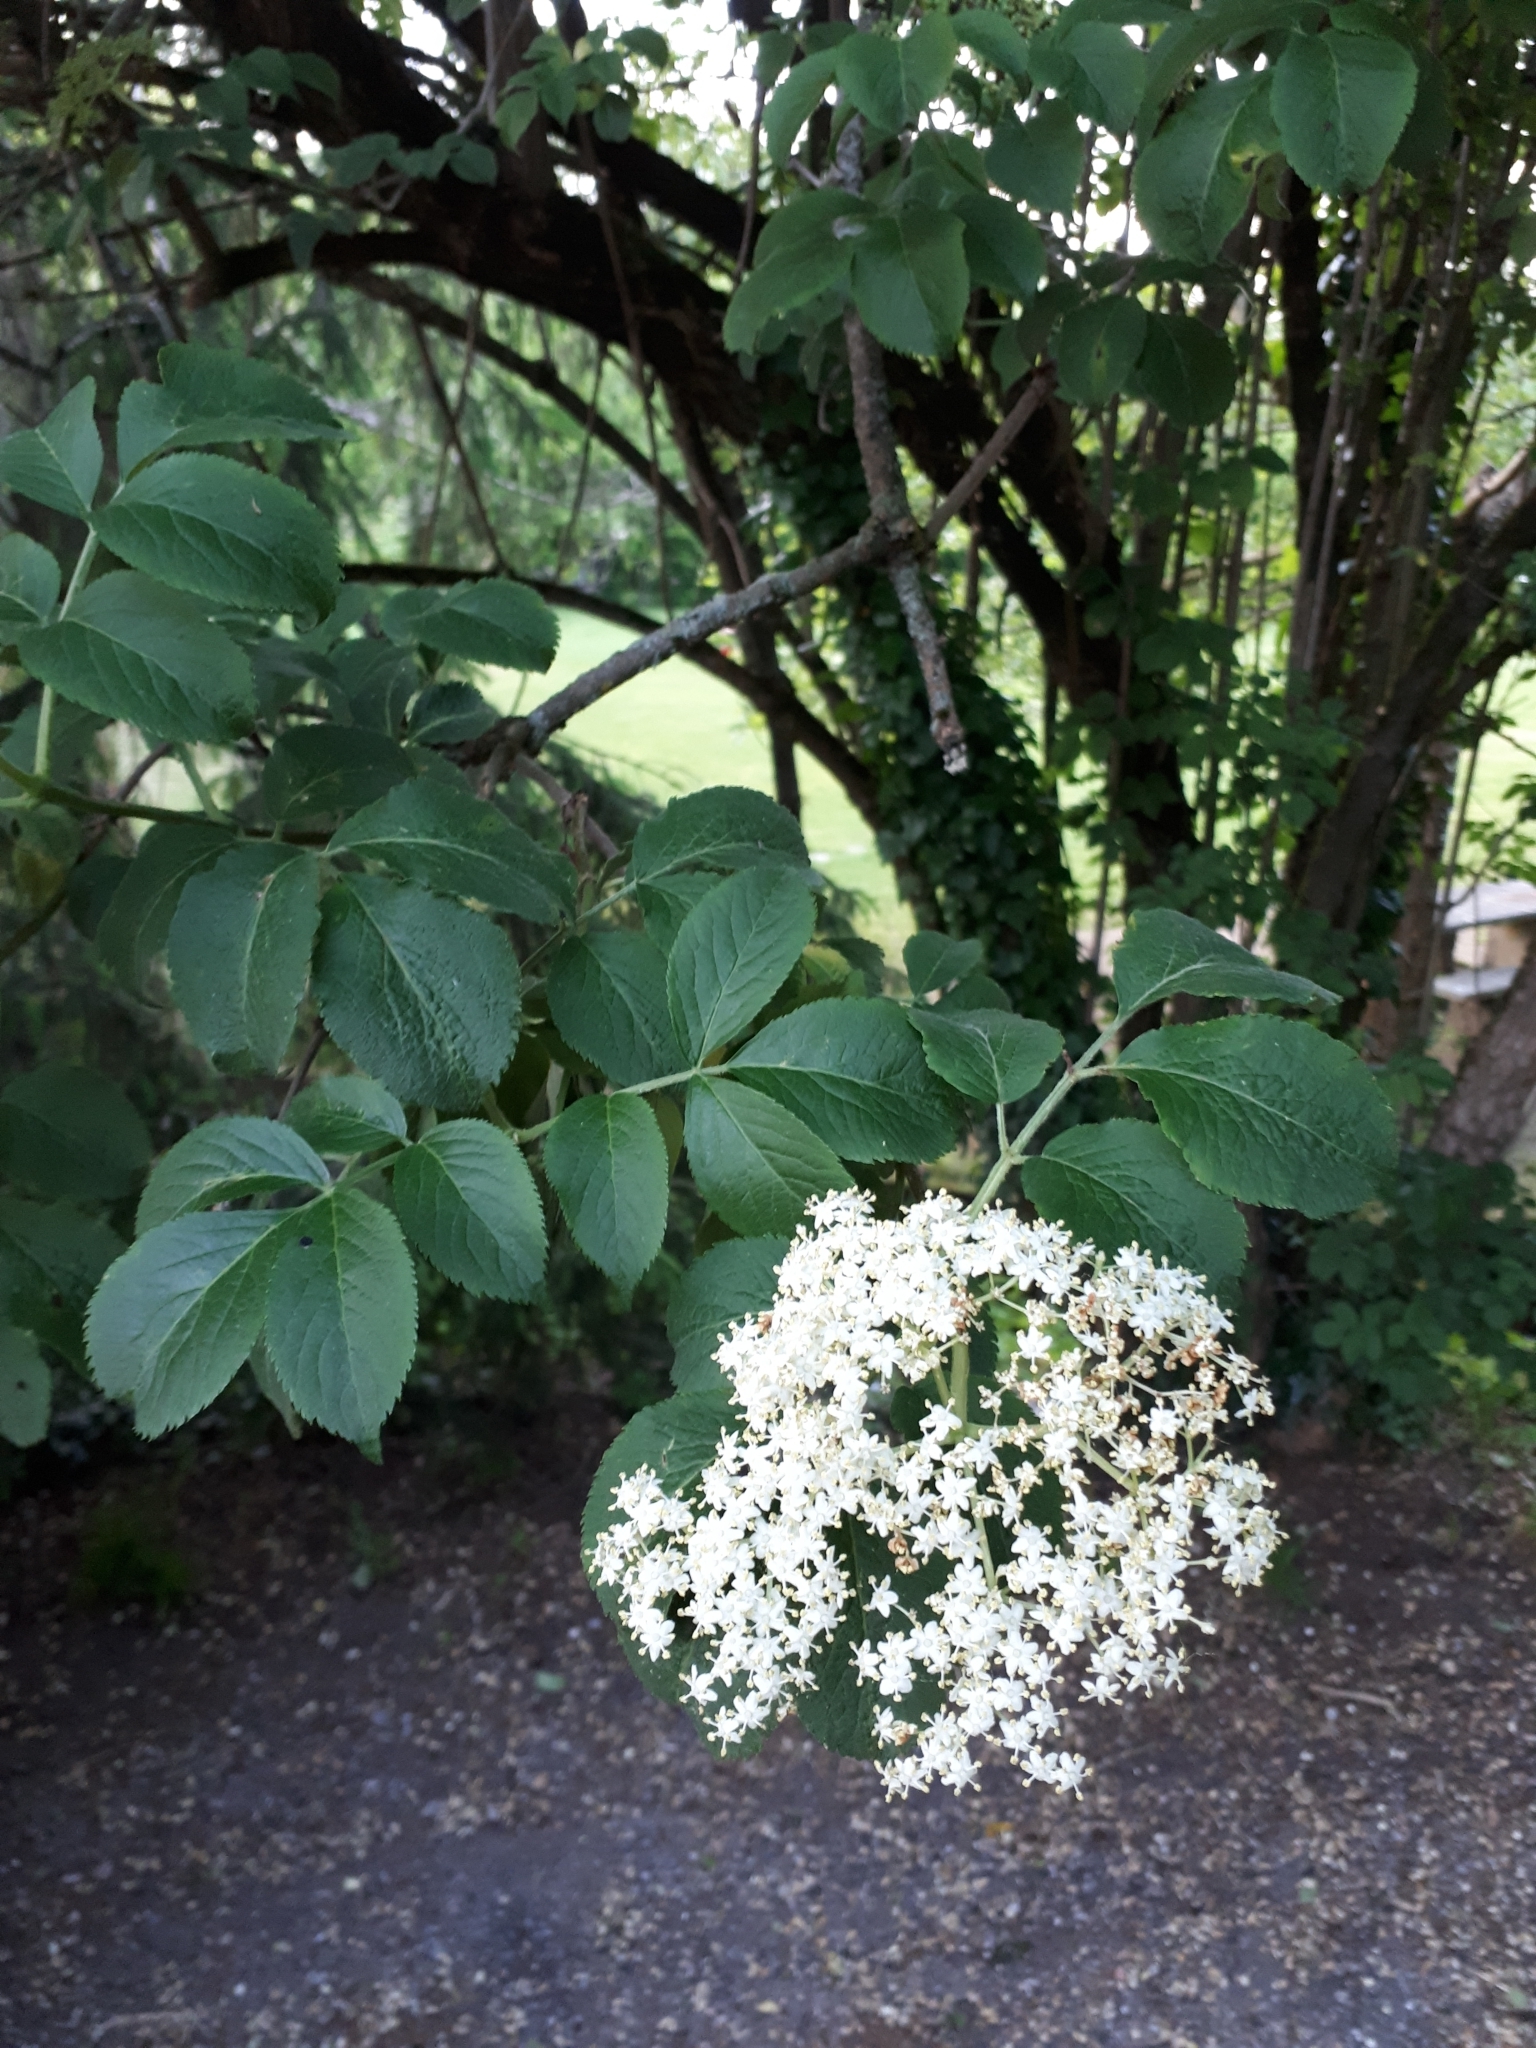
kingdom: Plantae
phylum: Tracheophyta
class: Magnoliopsida
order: Dipsacales
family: Viburnaceae
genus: Sambucus
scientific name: Sambucus nigra
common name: Elder
